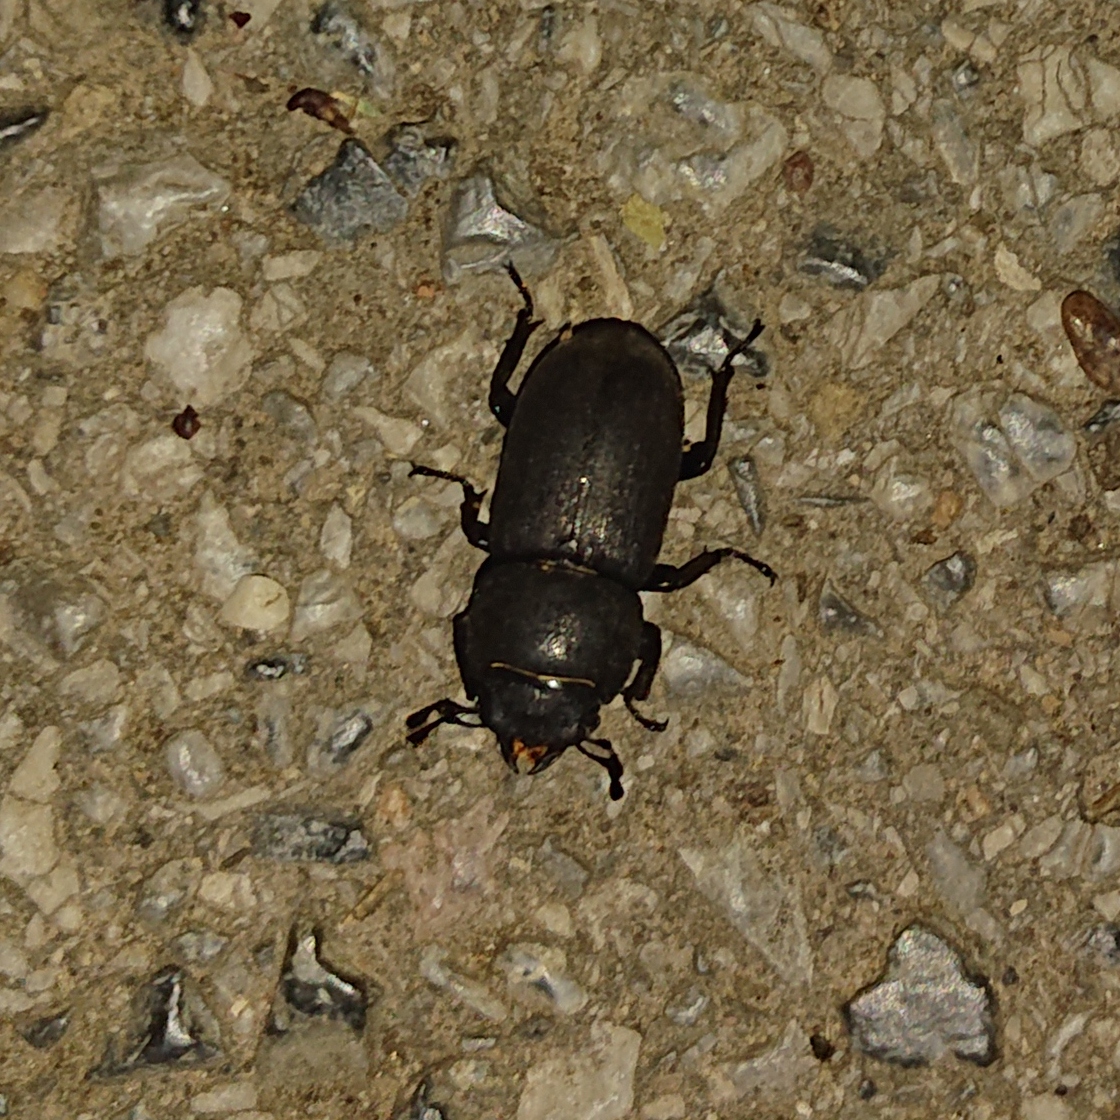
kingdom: Animalia
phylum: Arthropoda
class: Insecta
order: Coleoptera
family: Lucanidae
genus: Dorcus
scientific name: Dorcus parallelipipedus
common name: Lesser stag beetle
